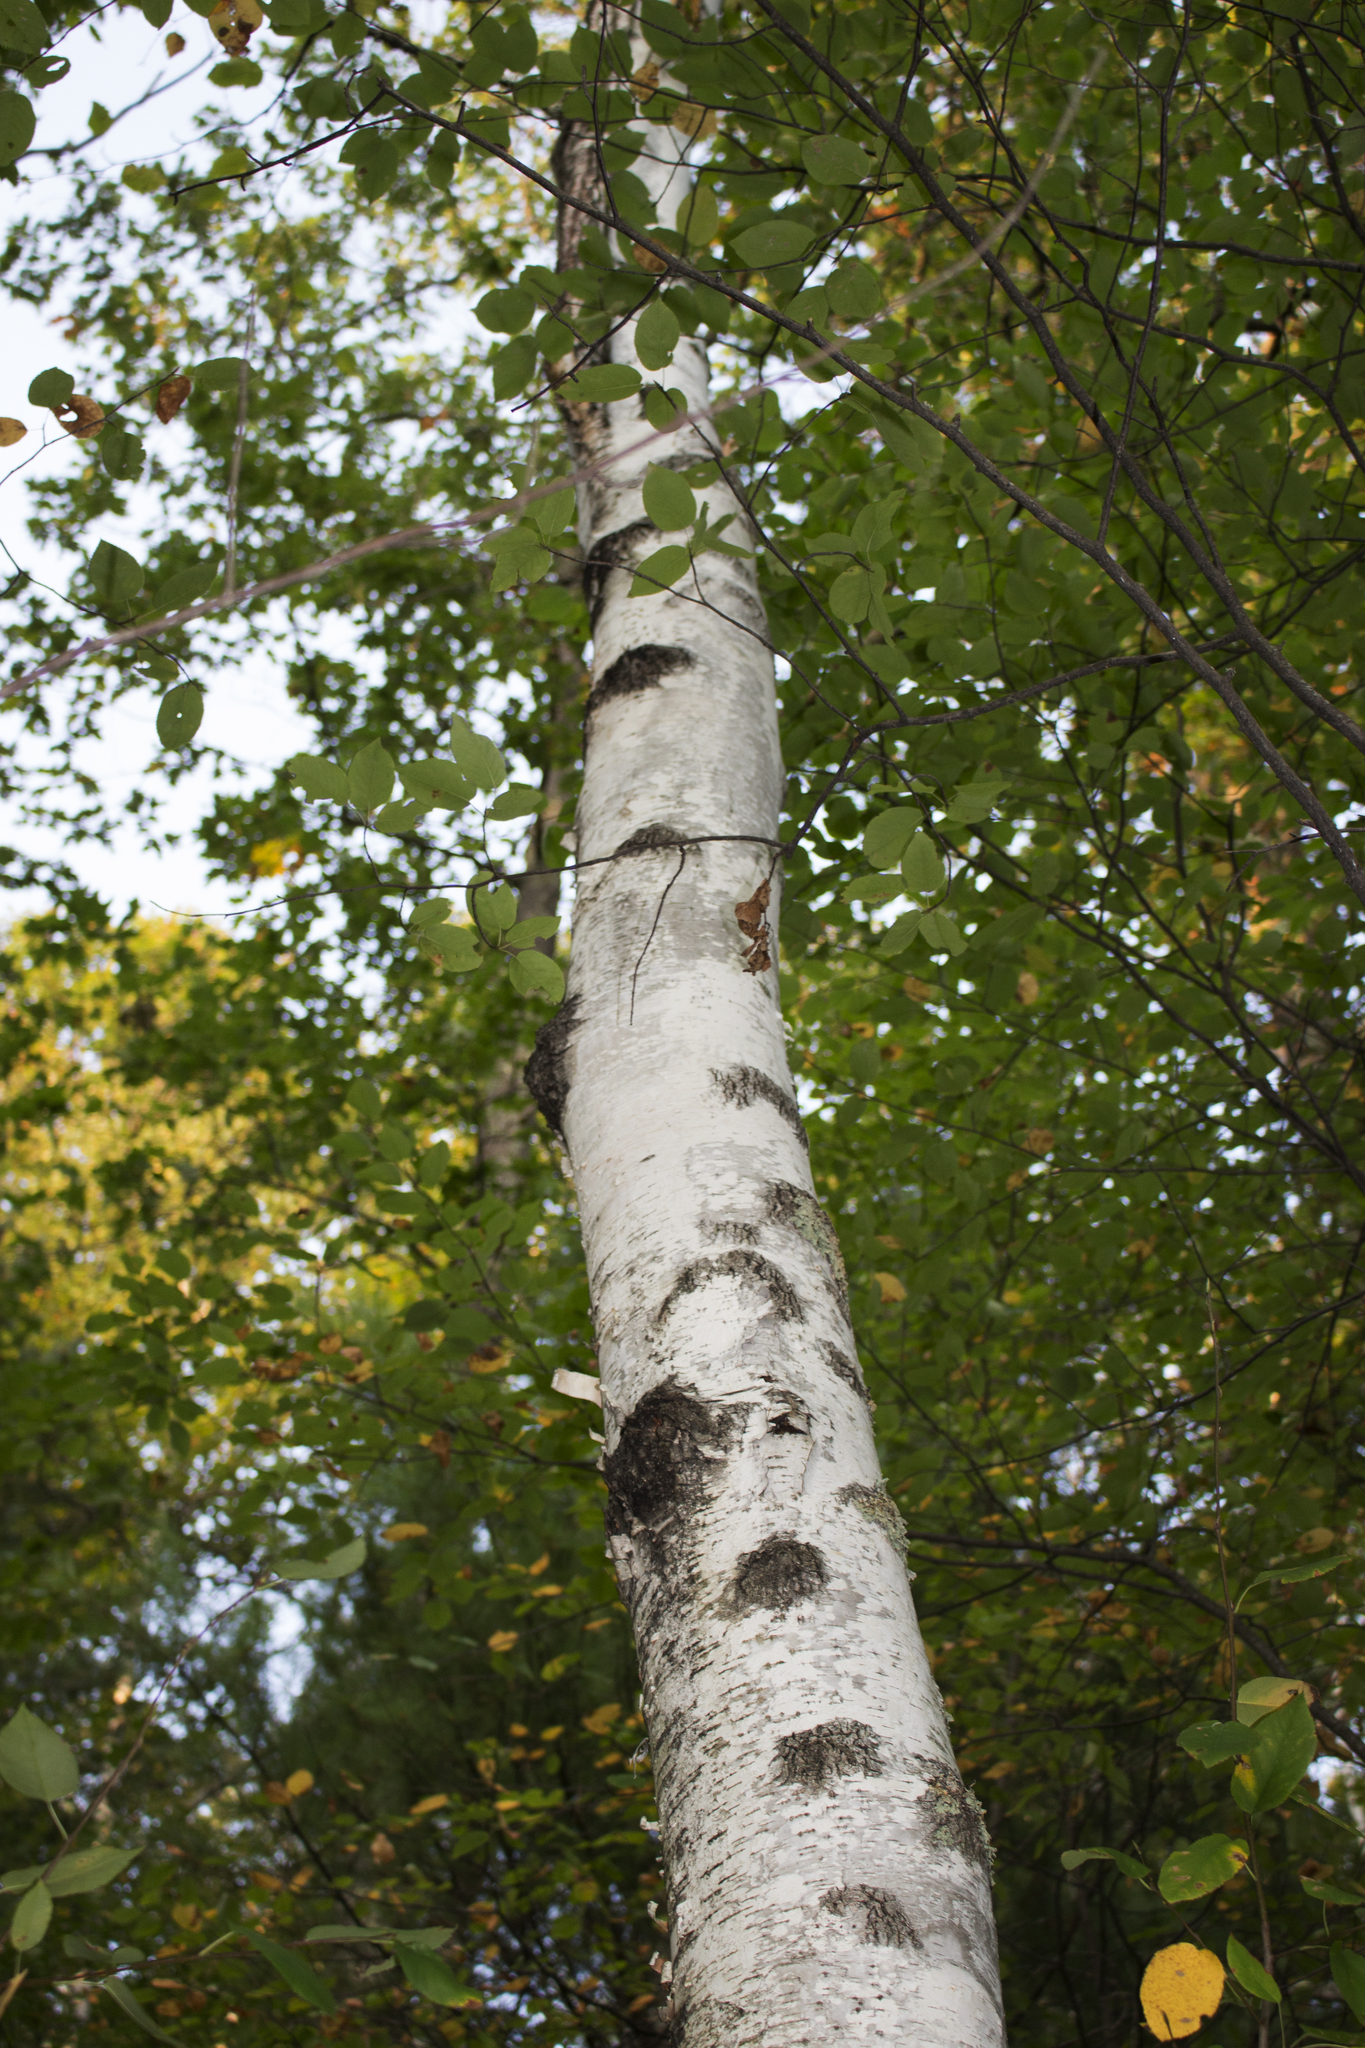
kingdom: Plantae
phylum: Tracheophyta
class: Magnoliopsida
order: Fagales
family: Betulaceae
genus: Betula
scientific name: Betula papyrifera
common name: Paper birch
